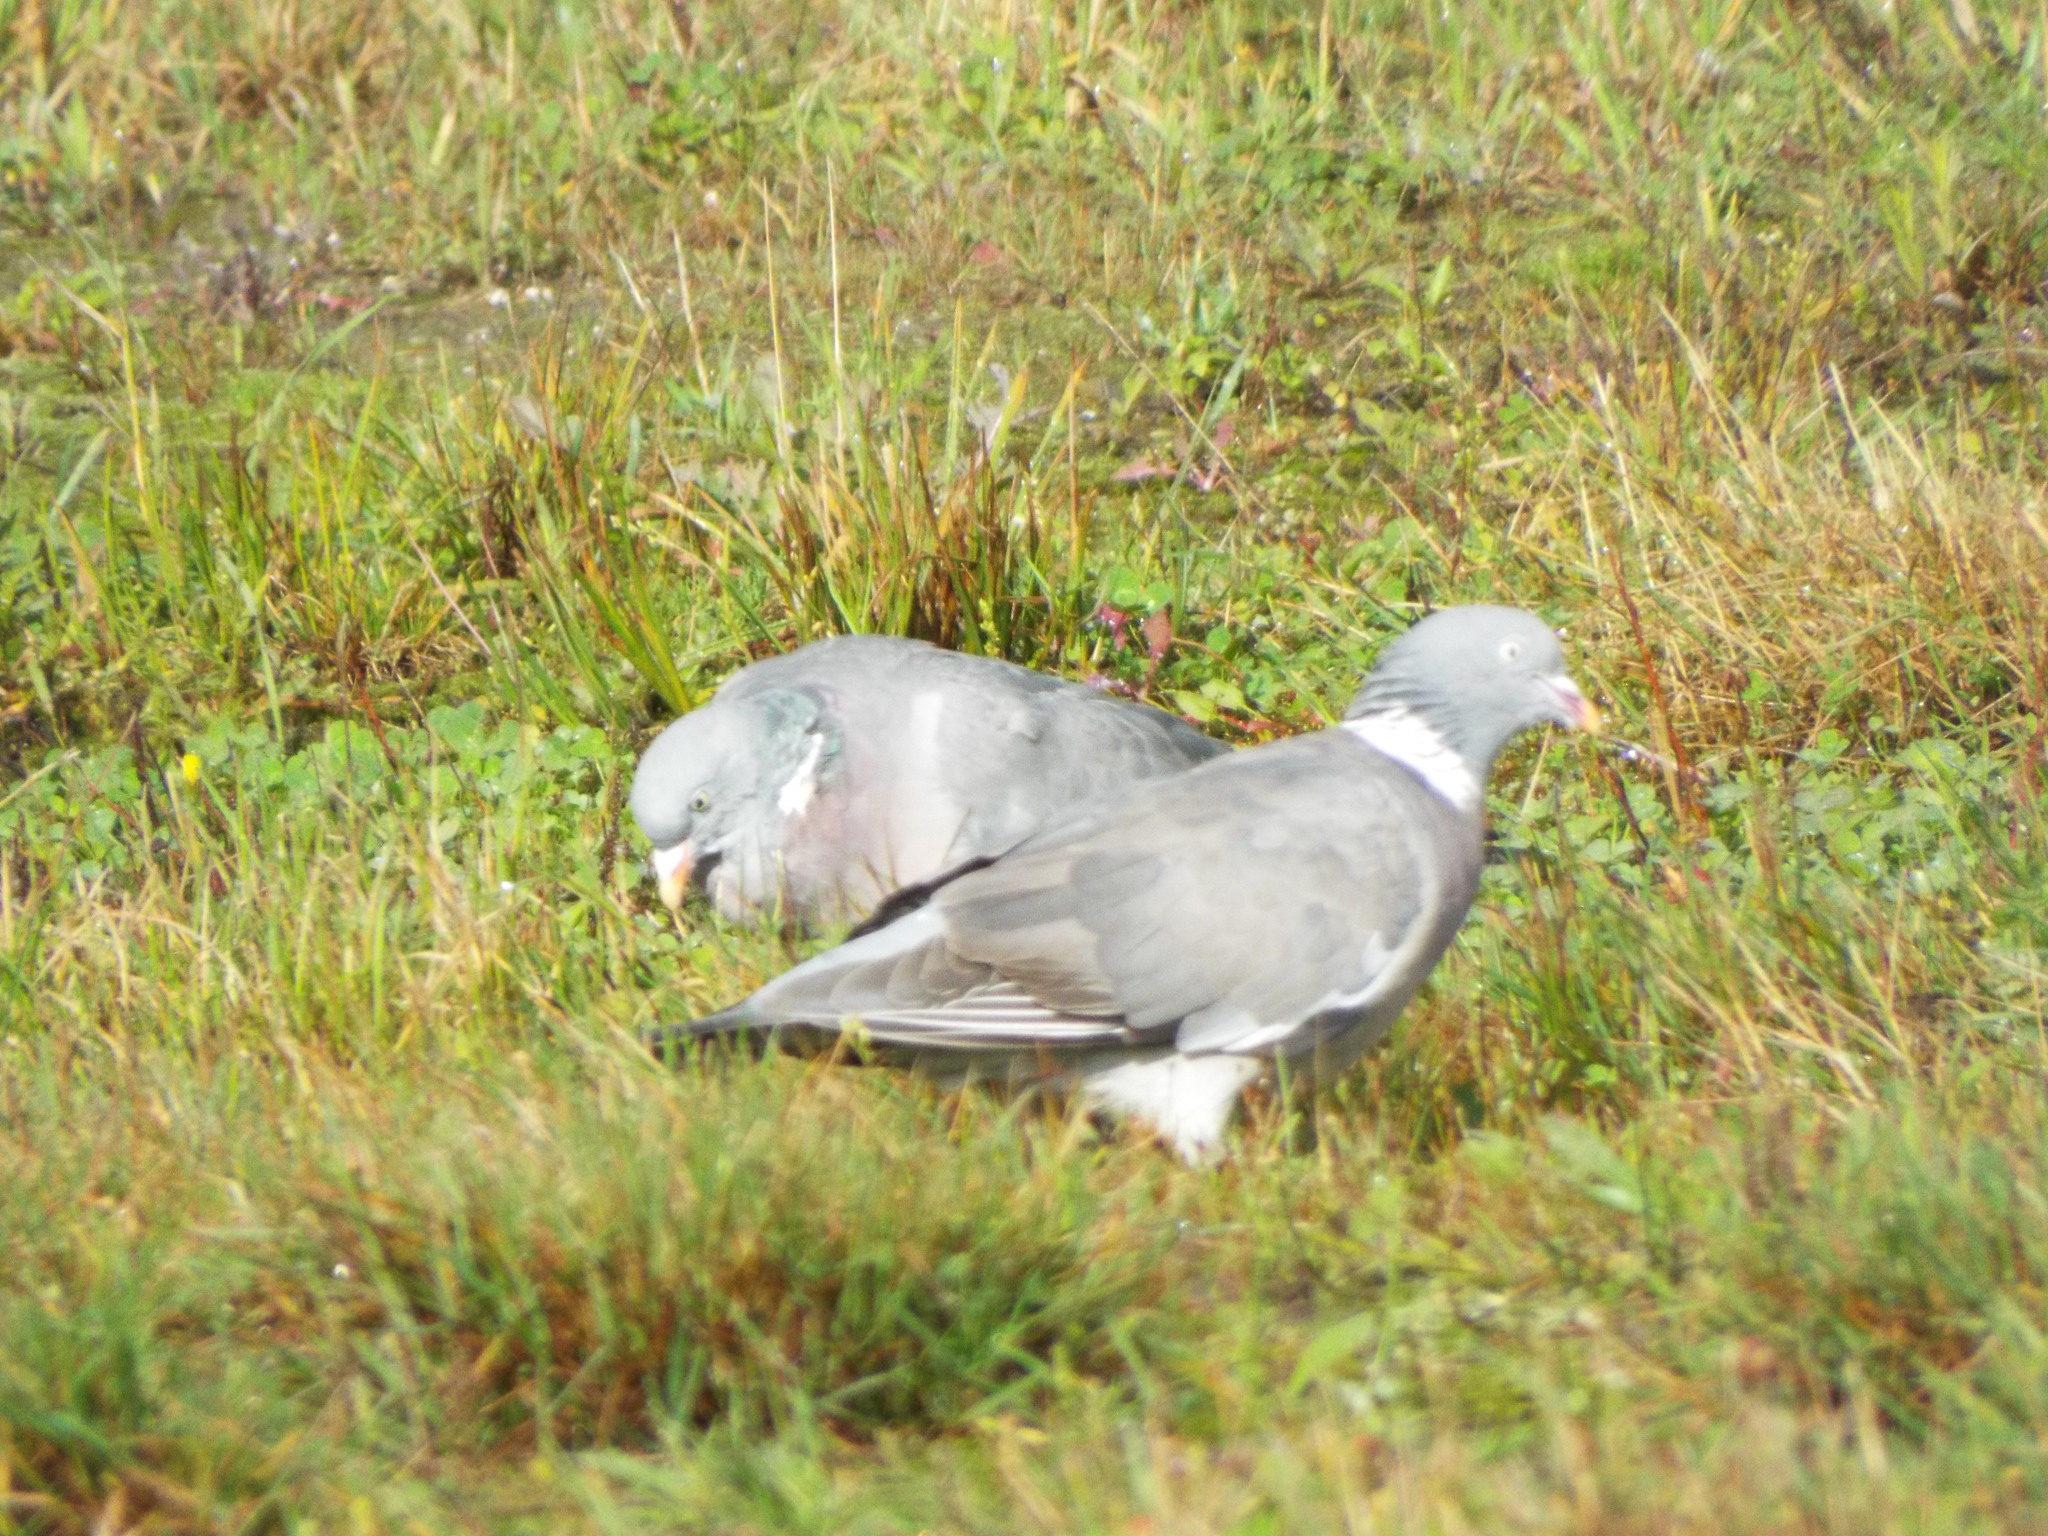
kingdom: Animalia
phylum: Chordata
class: Aves
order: Columbiformes
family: Columbidae
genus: Columba
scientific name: Columba palumbus
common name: Common wood pigeon
